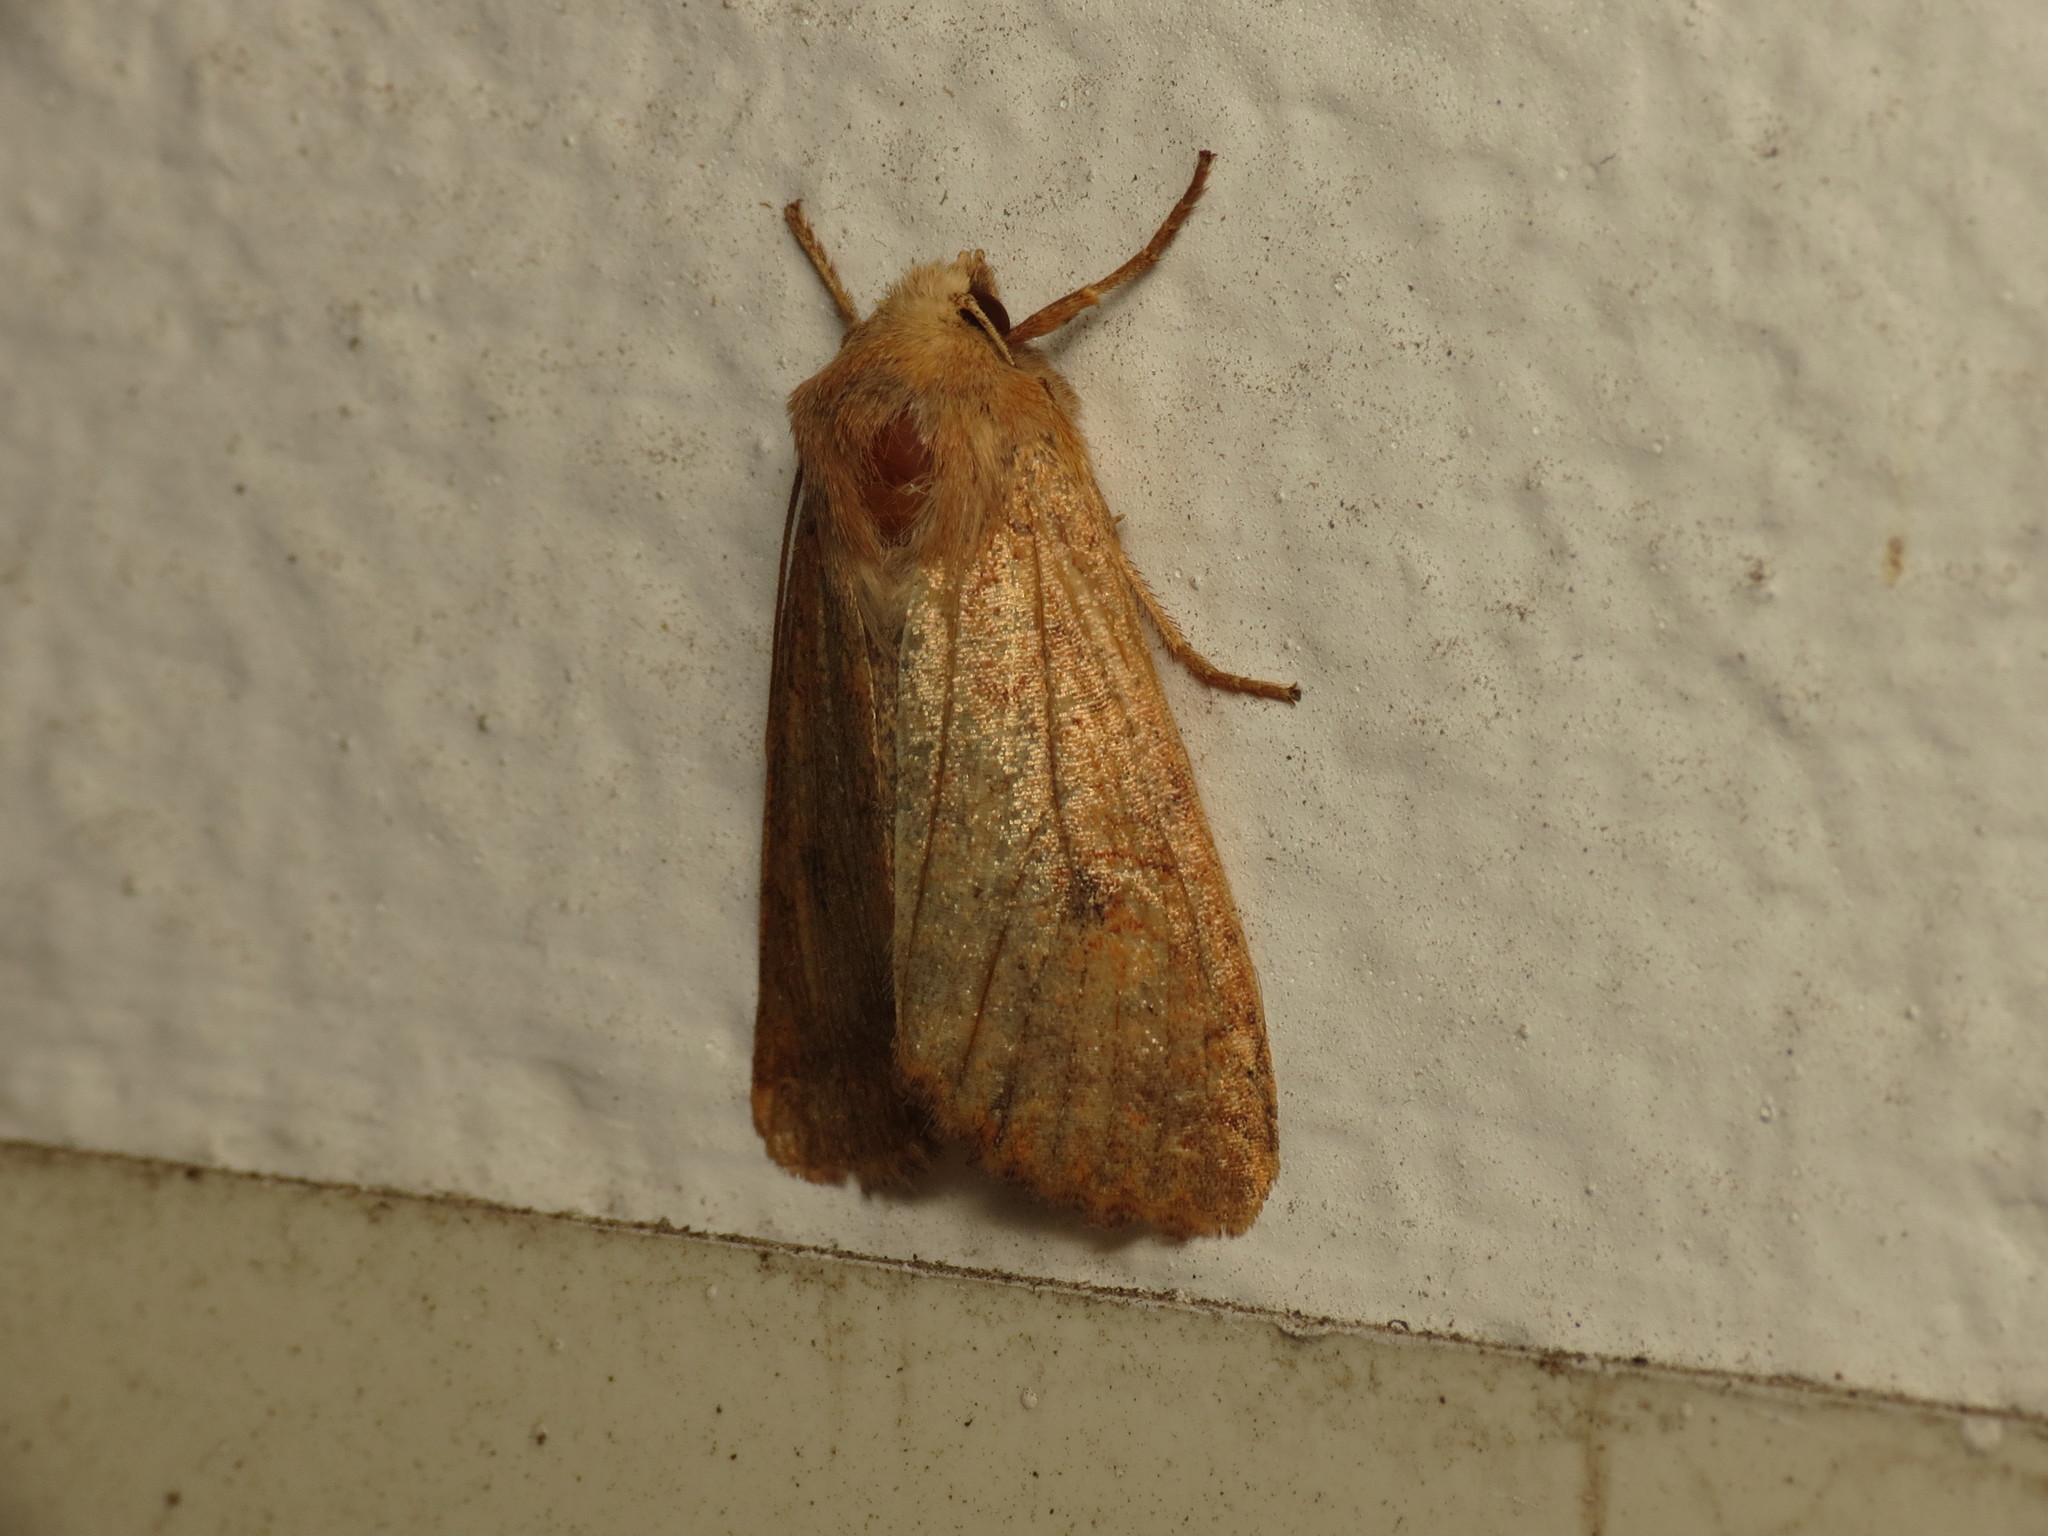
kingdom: Animalia
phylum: Arthropoda
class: Insecta
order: Lepidoptera
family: Noctuidae
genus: Sunira
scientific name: Sunira circellaris
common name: Brick
